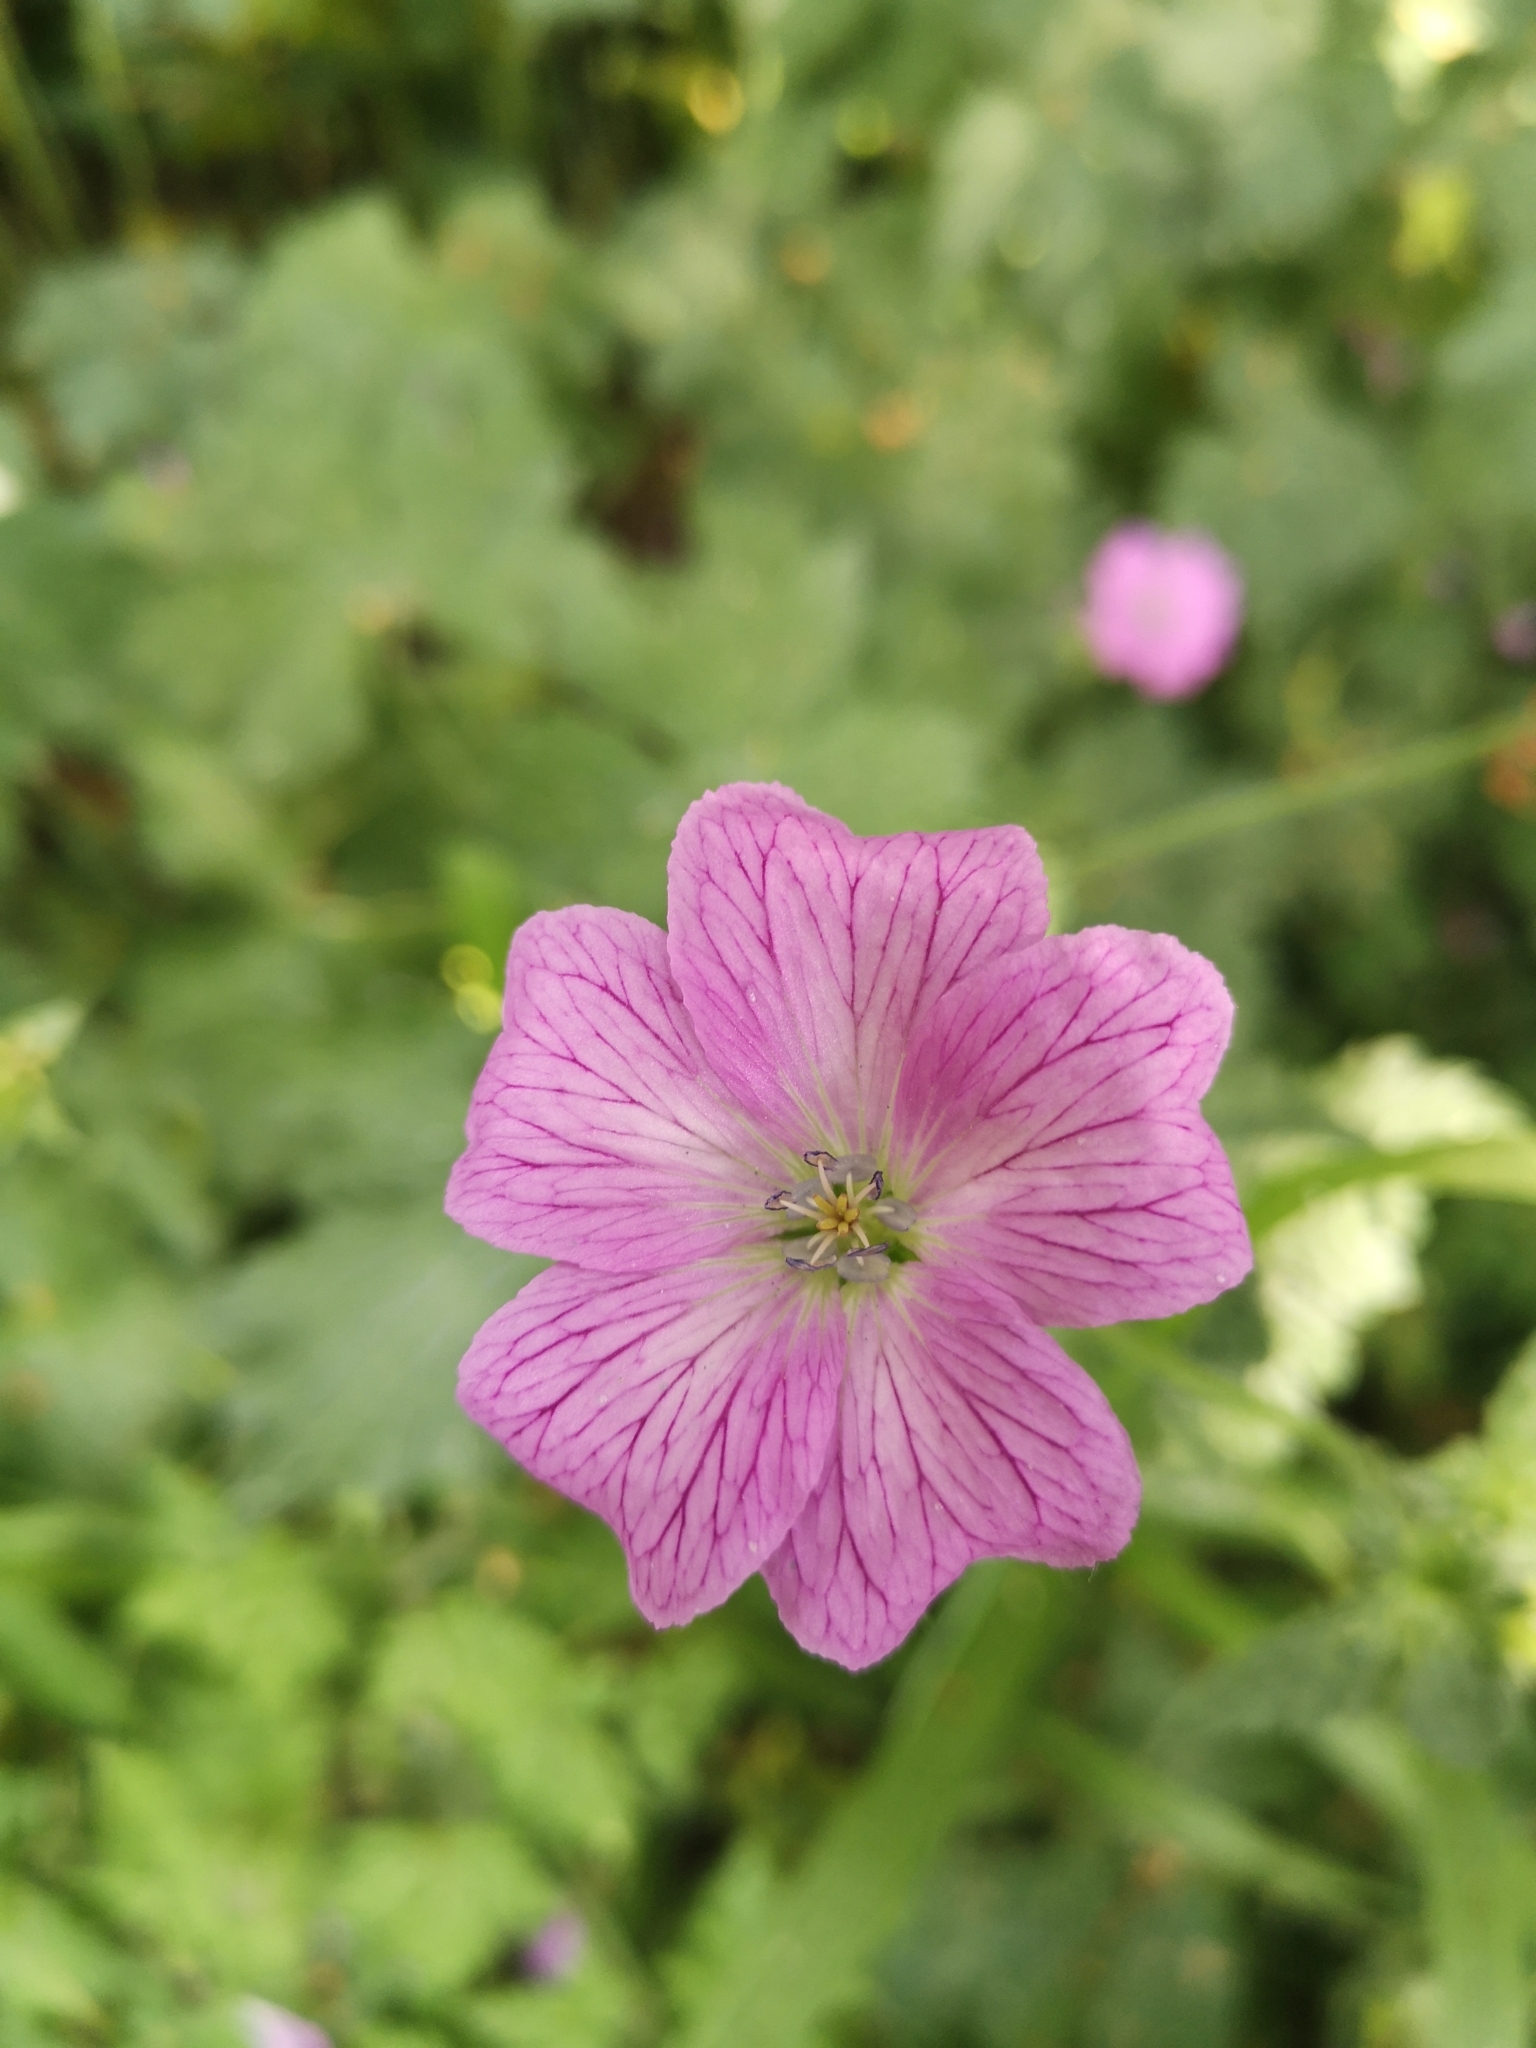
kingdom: Plantae
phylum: Tracheophyta
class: Magnoliopsida
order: Geraniales
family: Geraniaceae
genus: Geranium
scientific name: Geranium oxonianum
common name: Druce's crane's-bill
